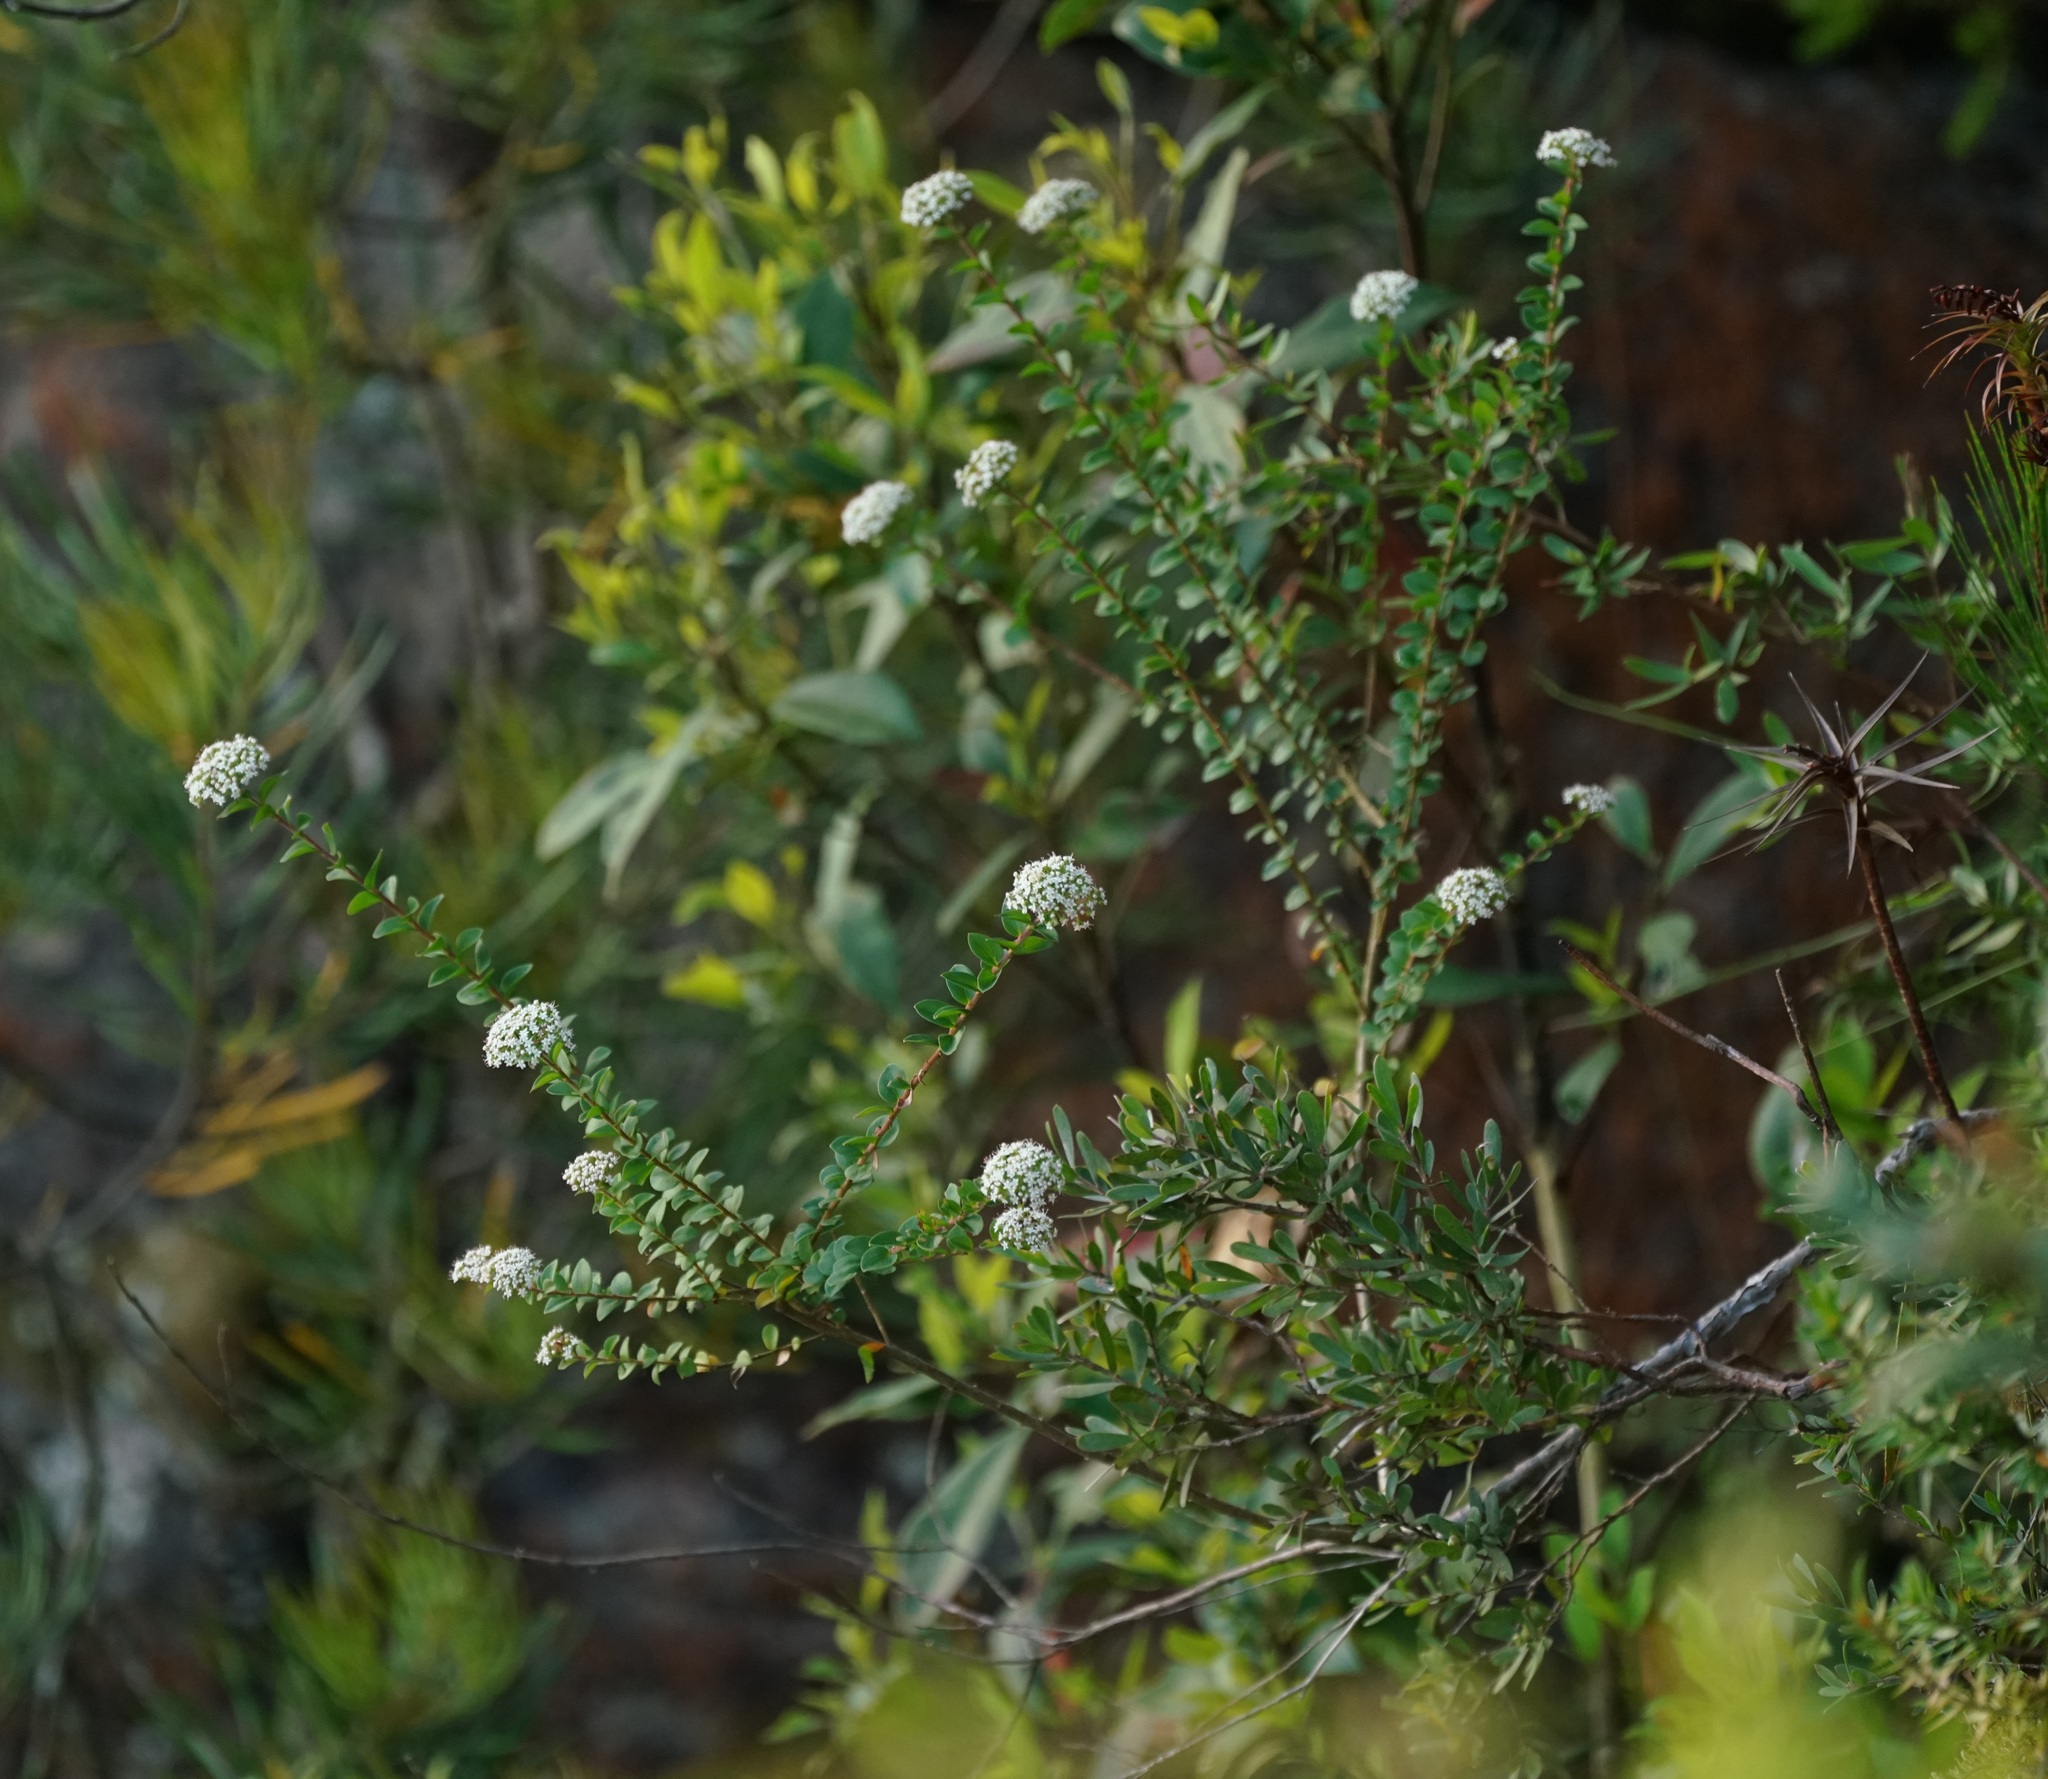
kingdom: Plantae
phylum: Tracheophyta
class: Magnoliopsida
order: Apiales
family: Apiaceae
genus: Platysace
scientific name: Platysace lanceolata
